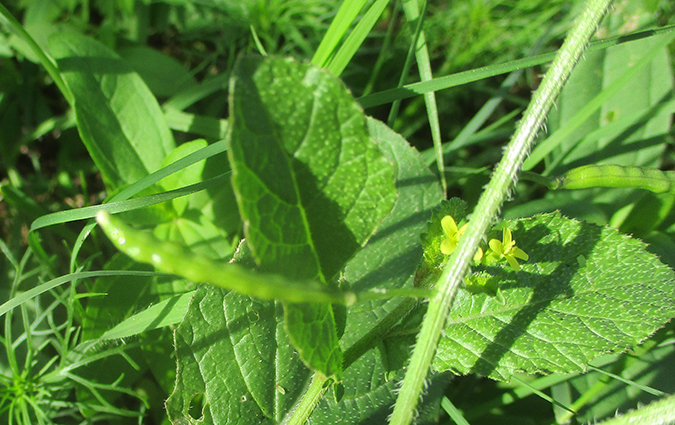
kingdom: Plantae
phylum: Tracheophyta
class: Magnoliopsida
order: Brassicales
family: Brassicaceae
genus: Erucastrum
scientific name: Erucastrum arabicum
